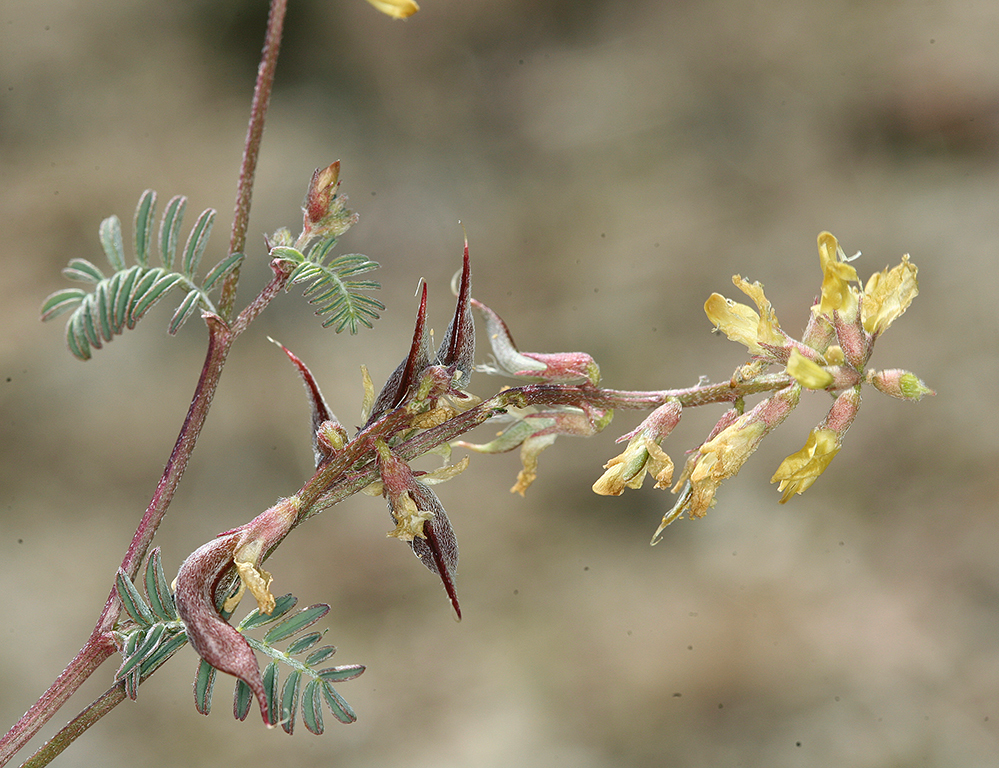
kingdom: Plantae
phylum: Tracheophyta
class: Magnoliopsida
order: Fabales
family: Fabaceae
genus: Astragalus
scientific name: Astragalus inyoensis
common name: Inyo locoweed
